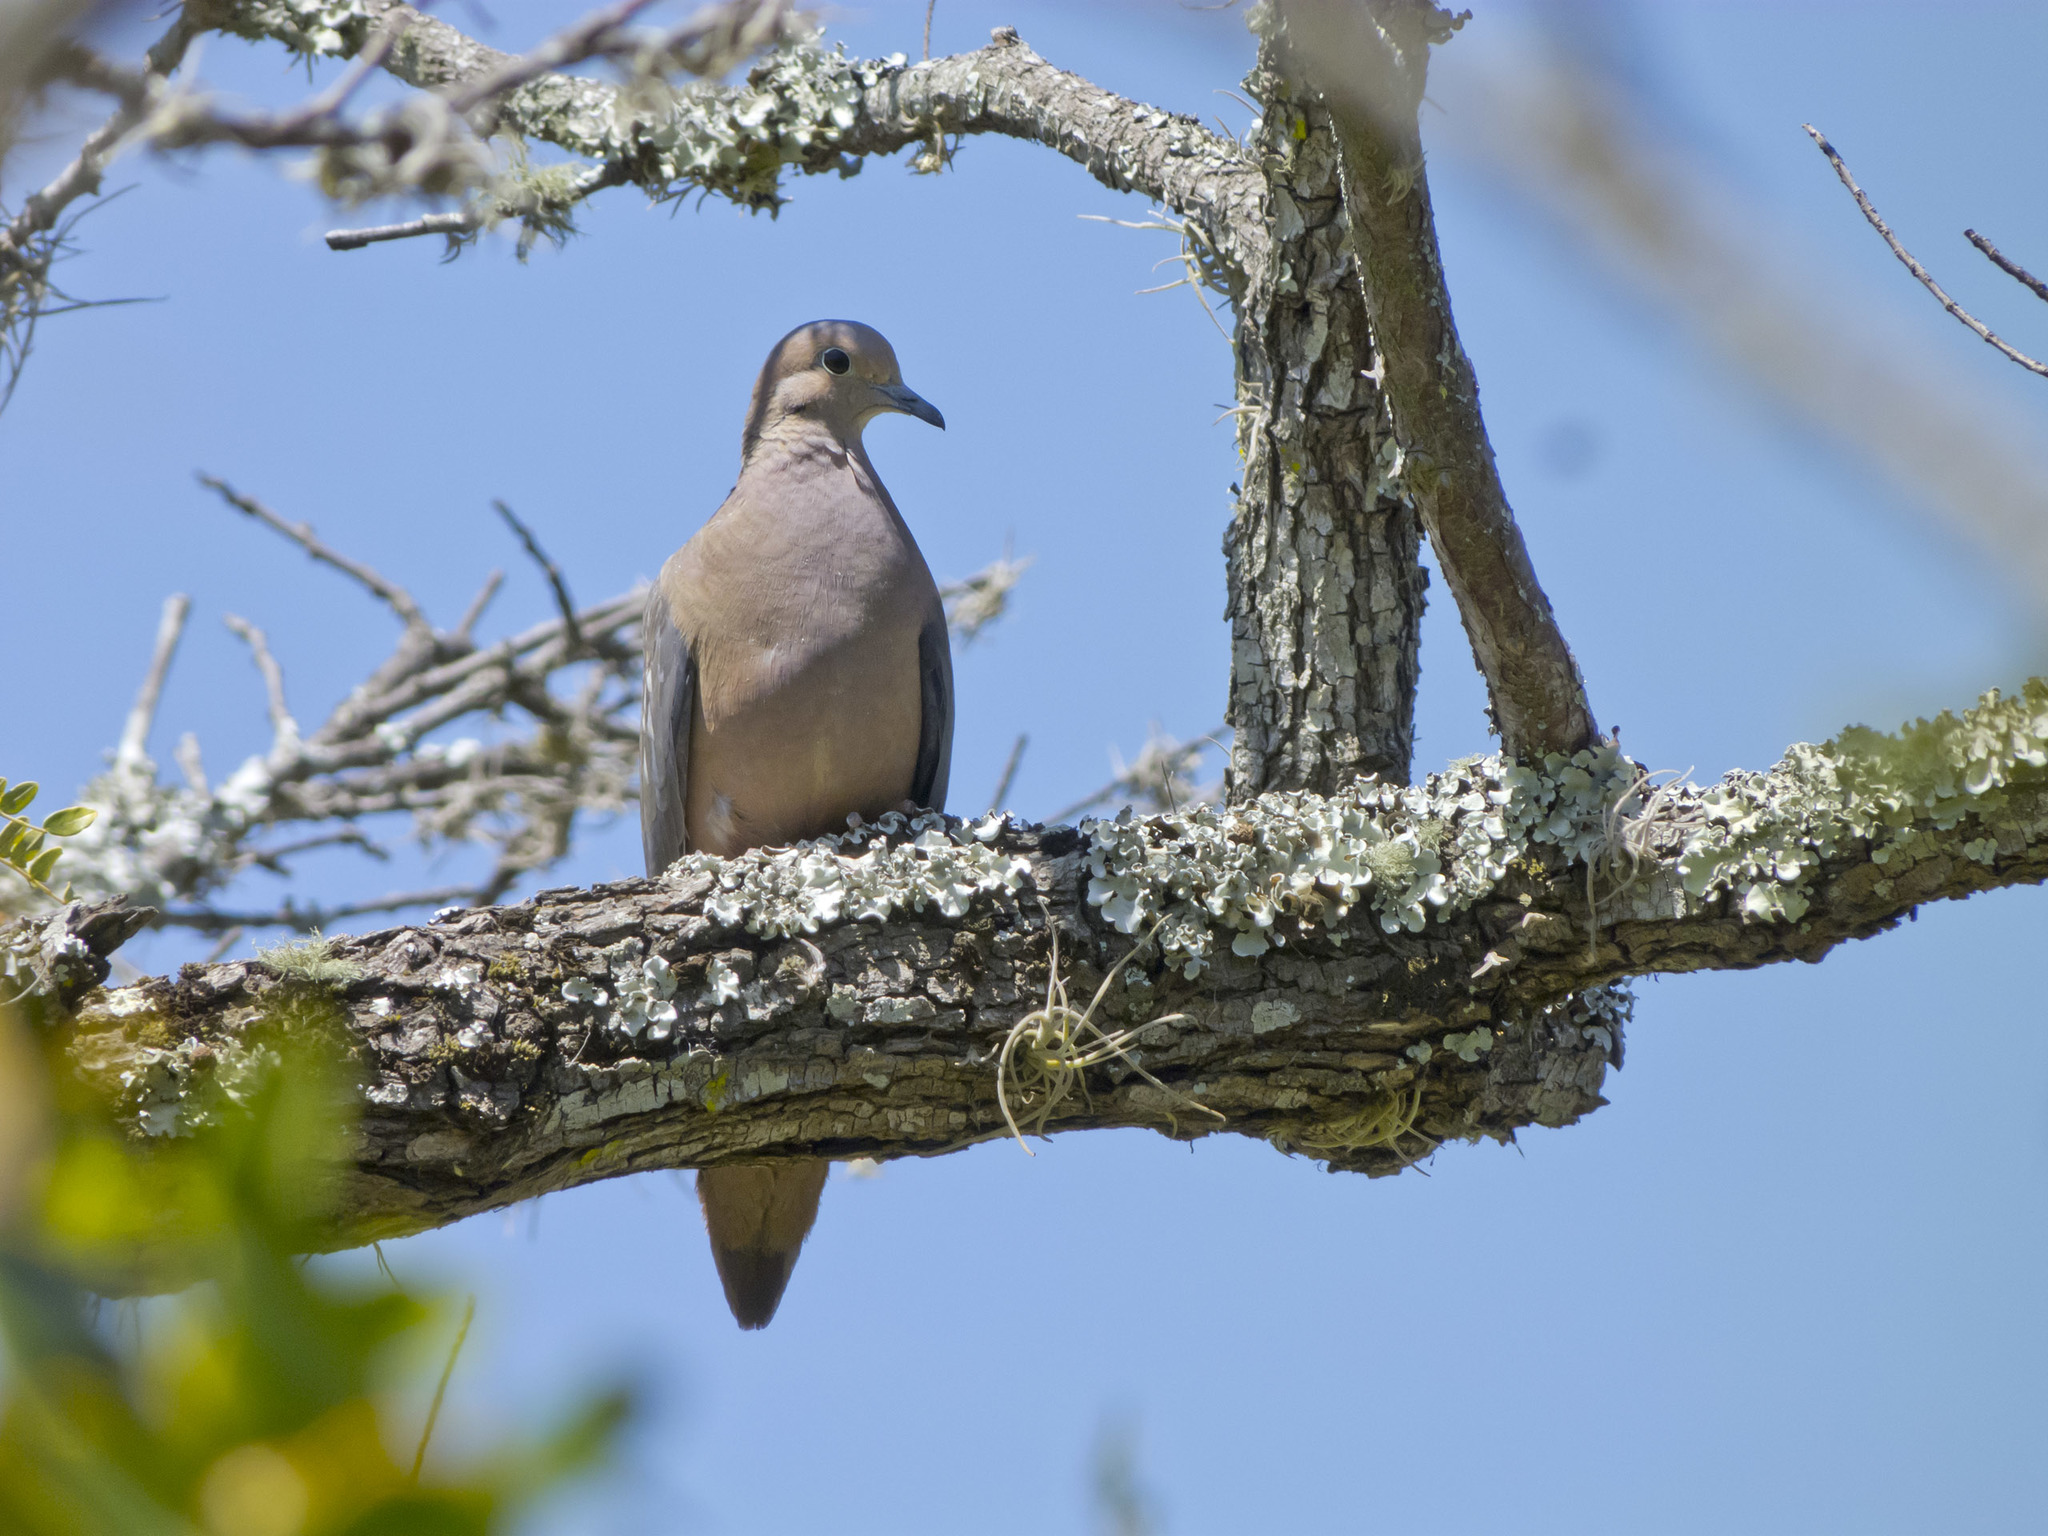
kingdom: Animalia
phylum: Chordata
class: Aves
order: Columbiformes
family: Columbidae
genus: Zenaida
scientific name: Zenaida auriculata
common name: Eared dove
